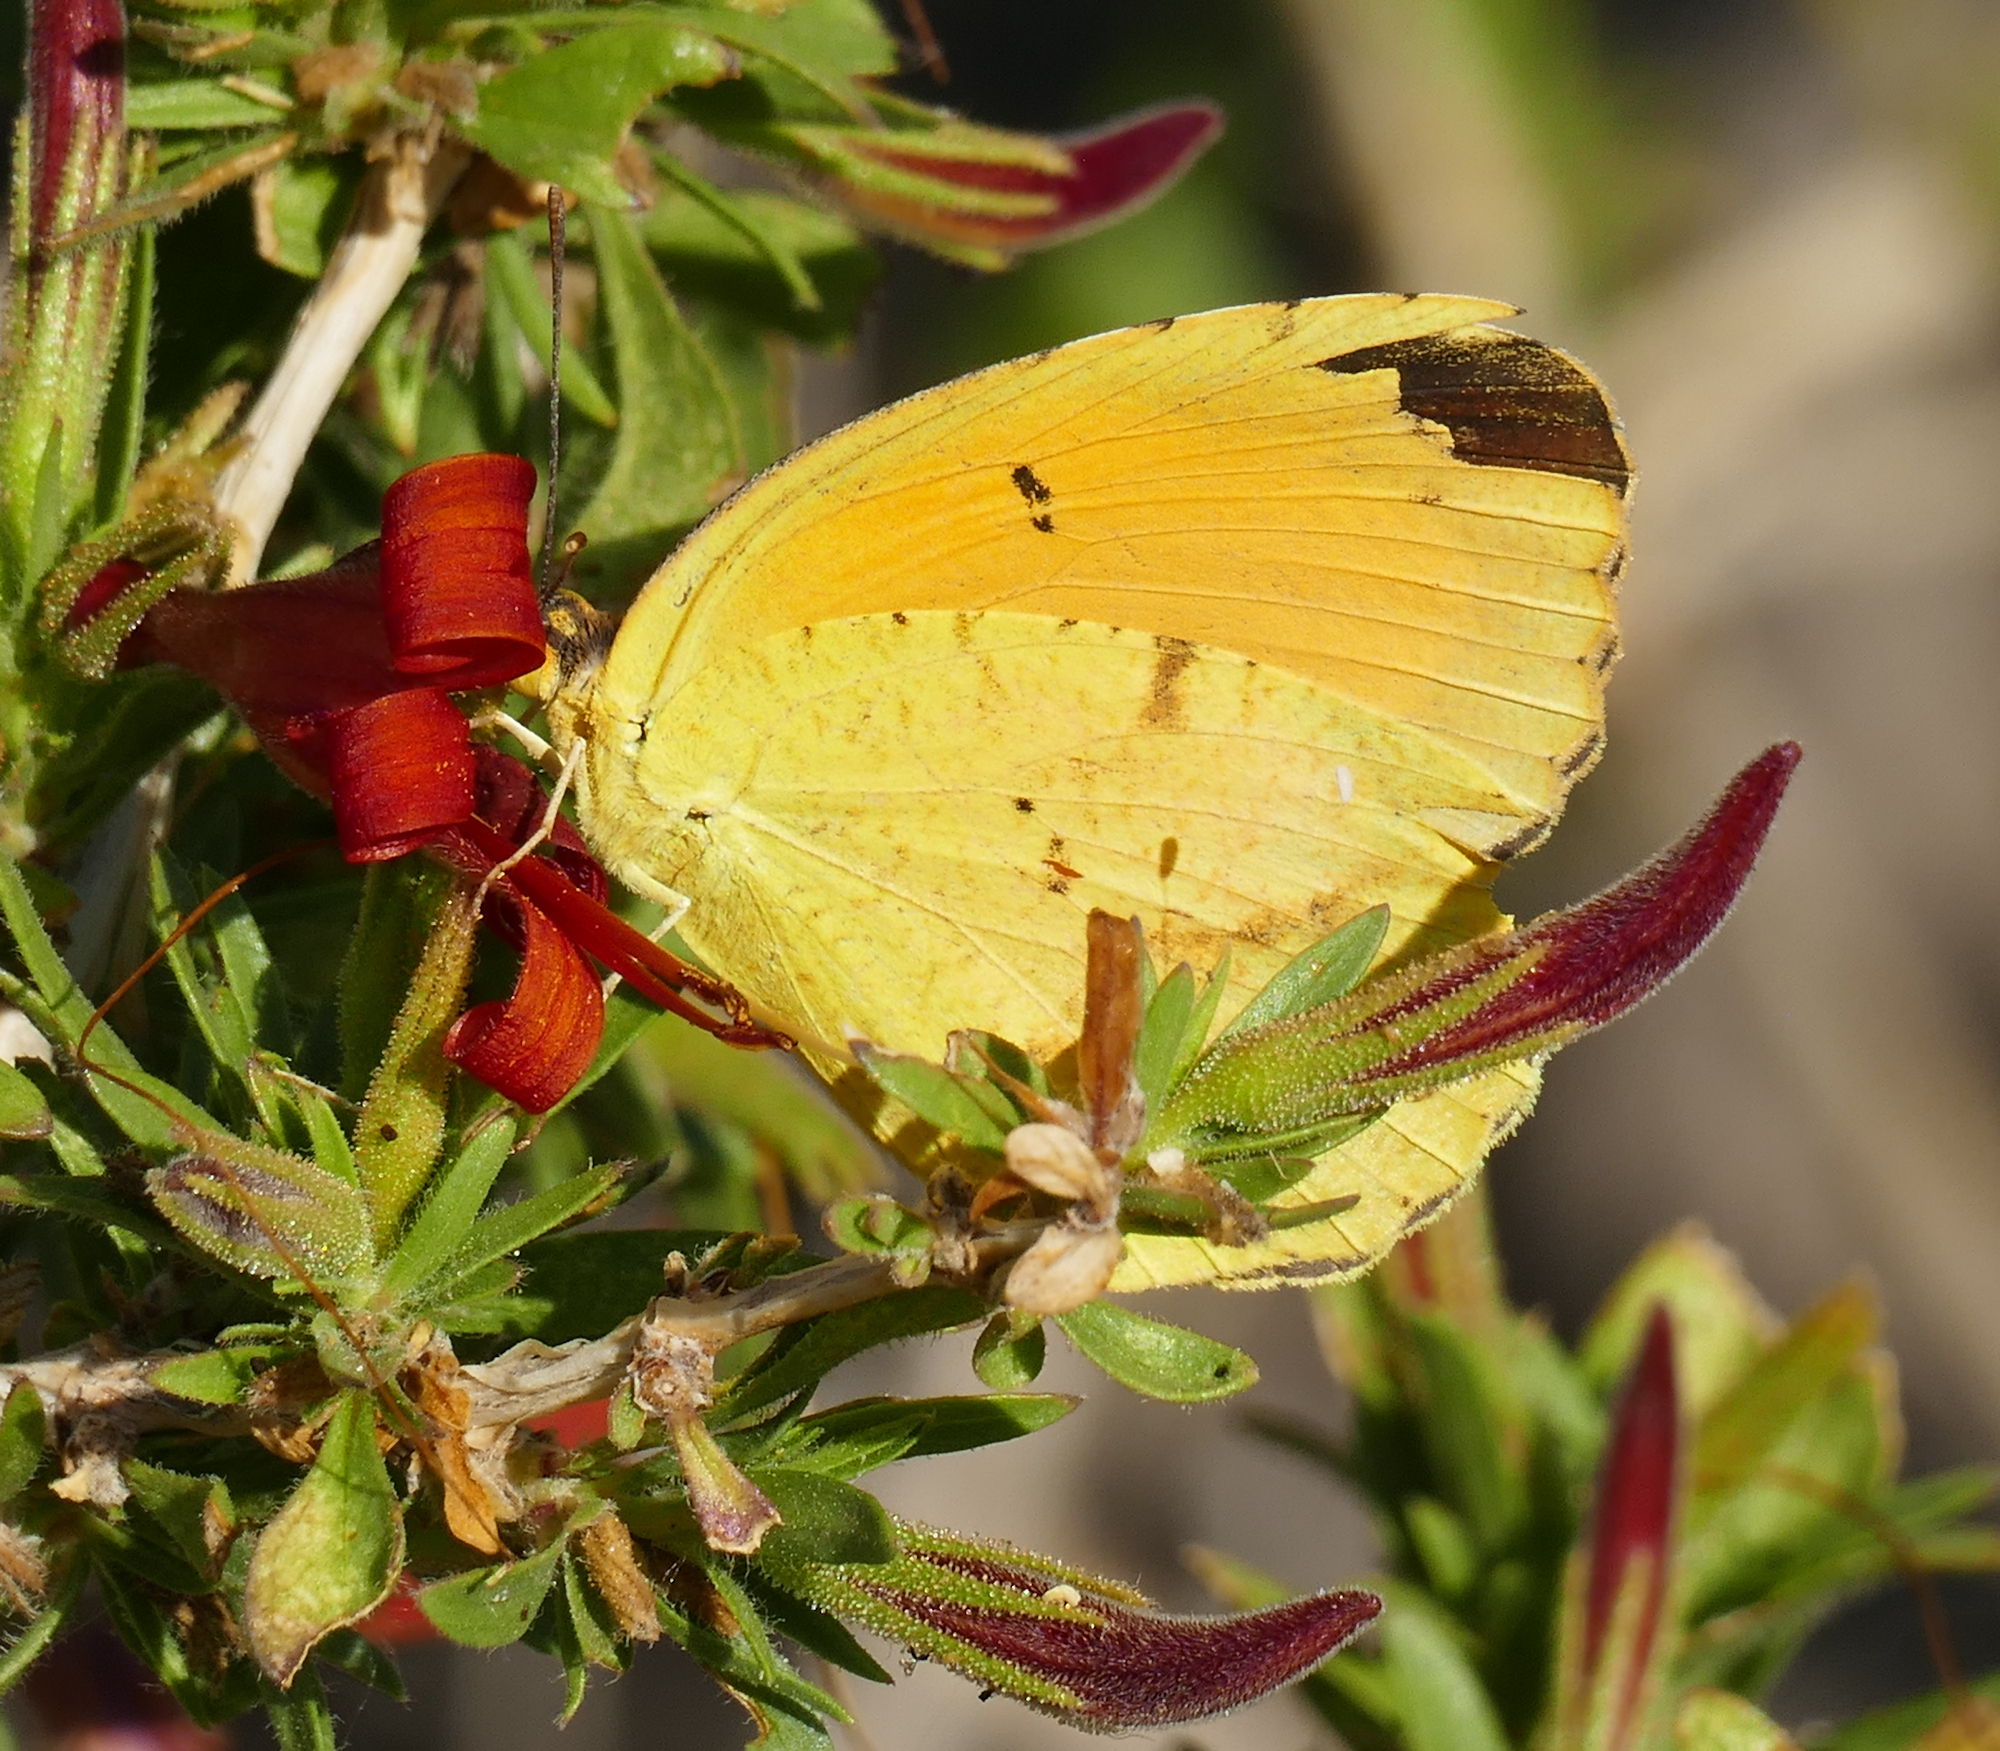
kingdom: Animalia
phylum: Arthropoda
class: Insecta
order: Lepidoptera
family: Pieridae
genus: Abaeis
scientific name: Abaeis nicippe
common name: Sleepy orange
